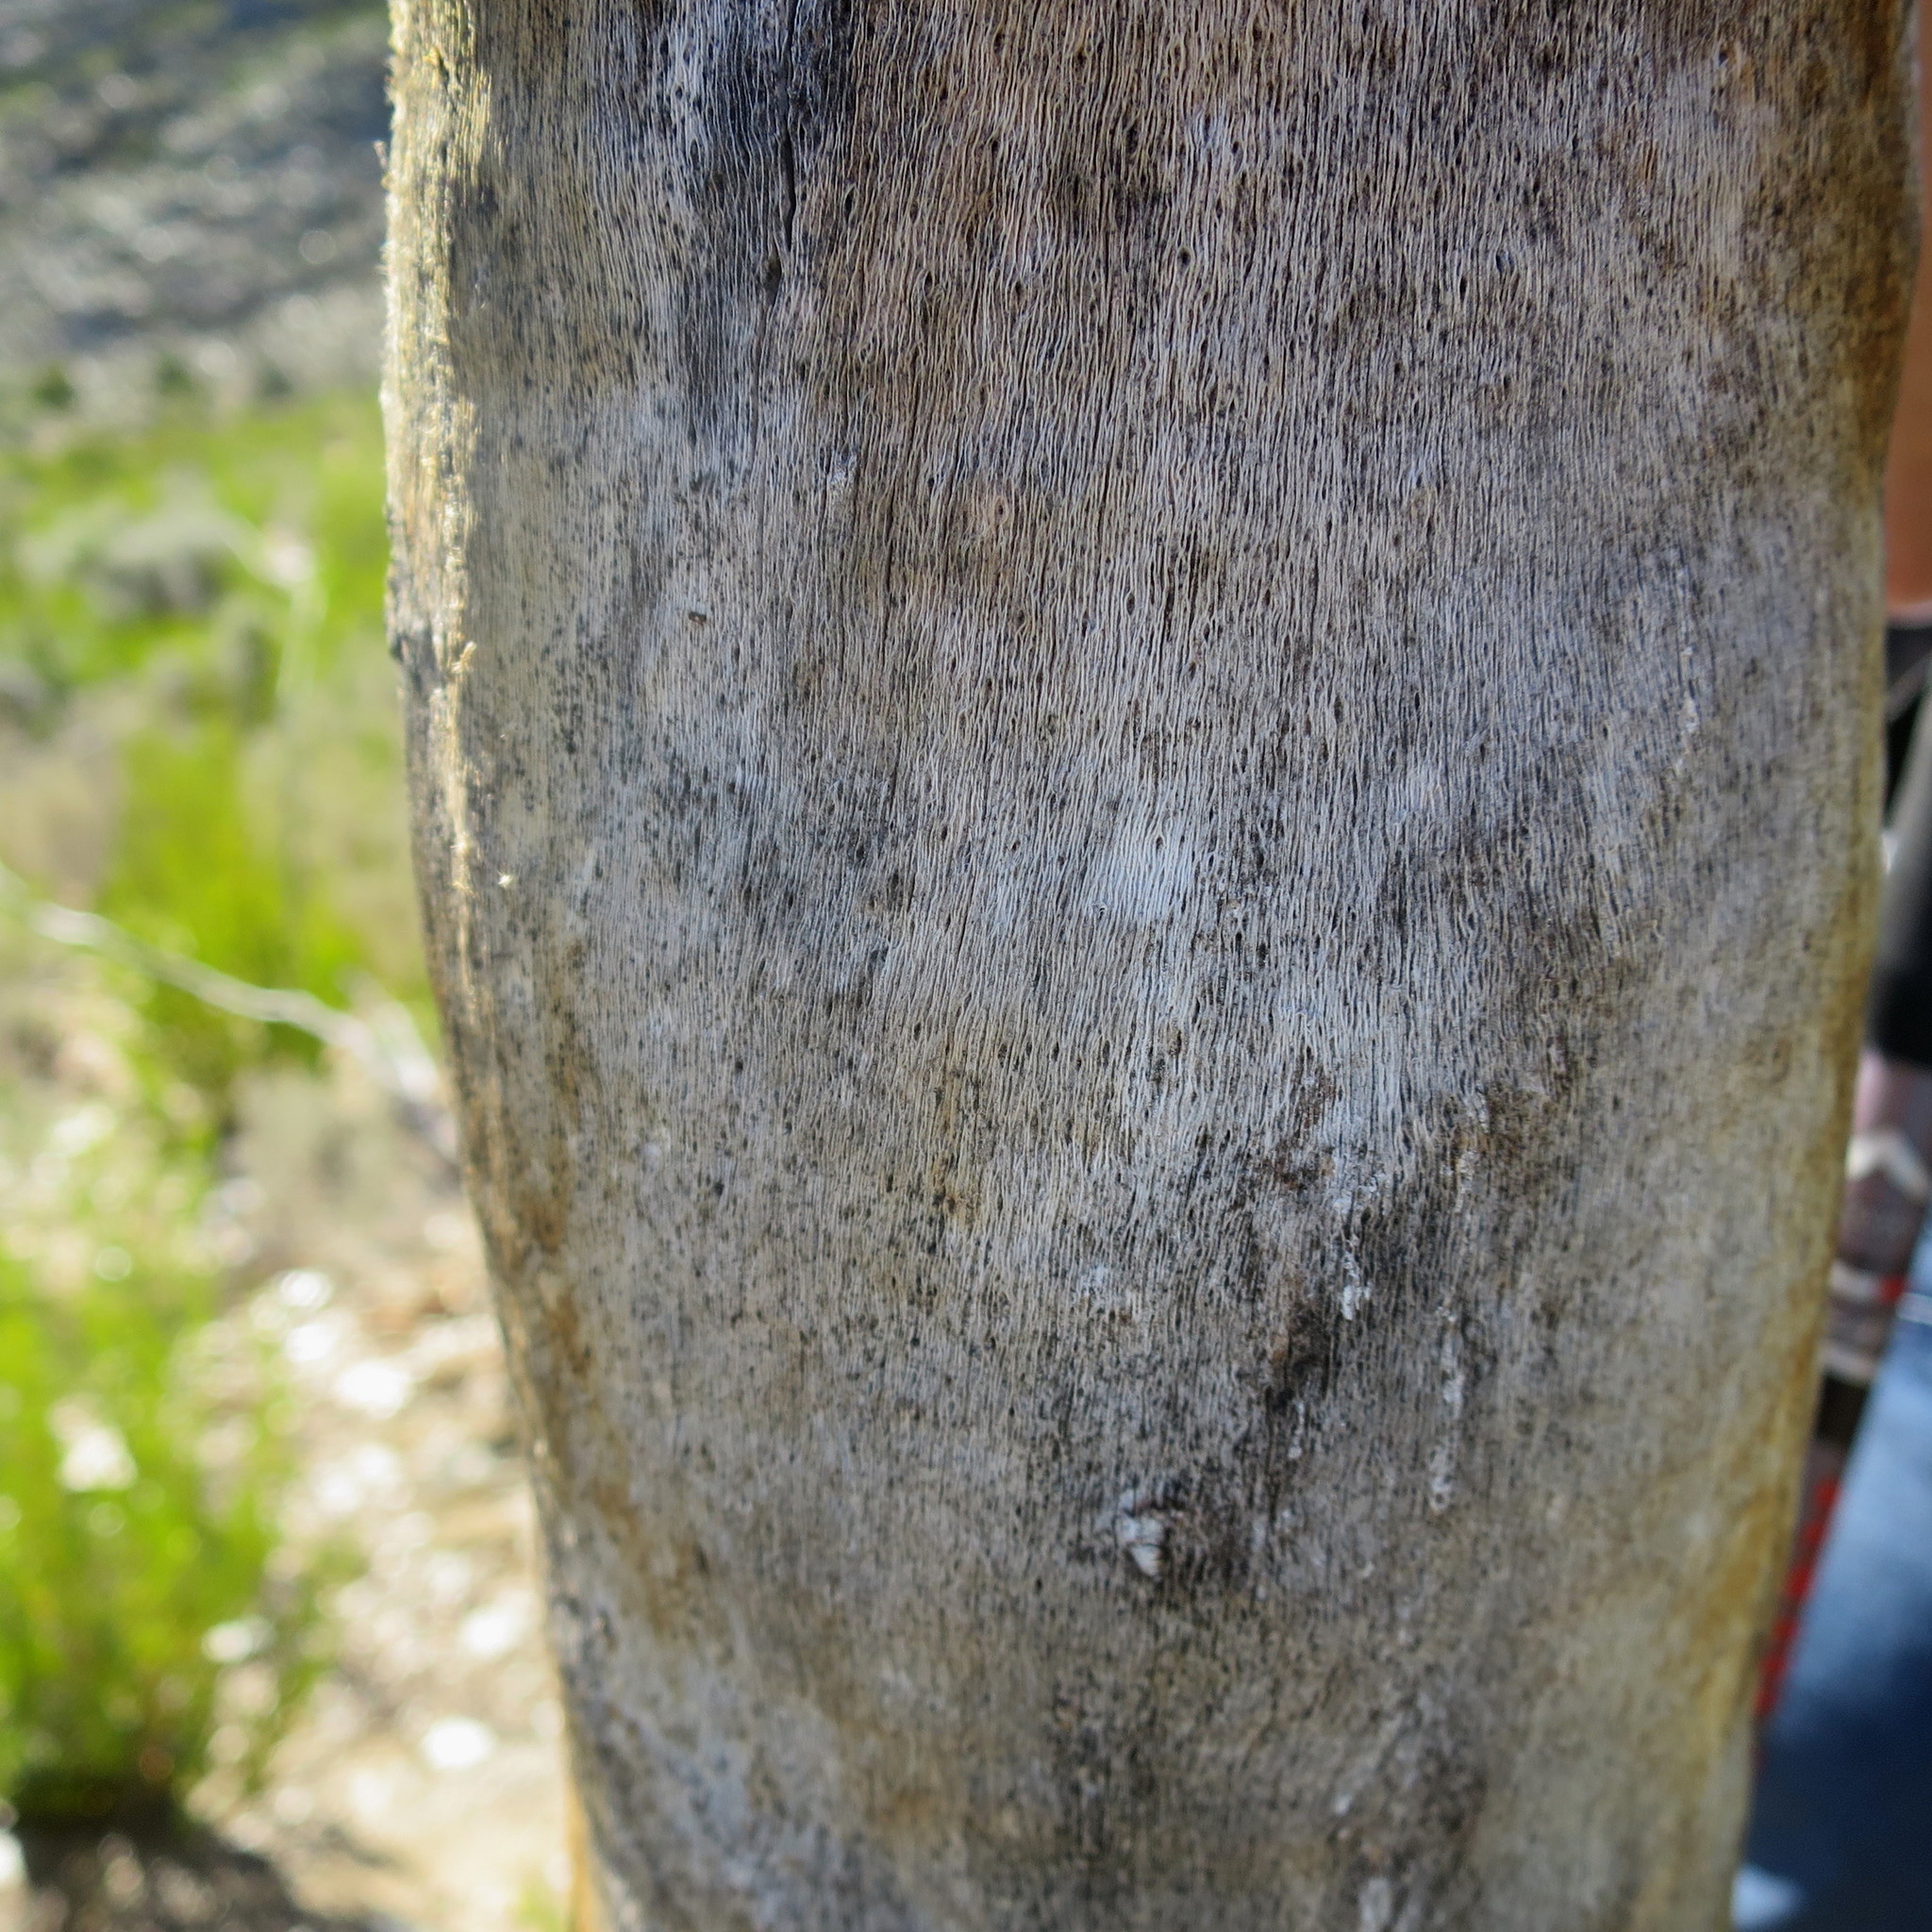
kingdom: Plantae
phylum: Tracheophyta
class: Liliopsida
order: Asparagales
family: Asphodelaceae
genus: Aloe
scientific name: Aloe ferox
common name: Bitter aloe
